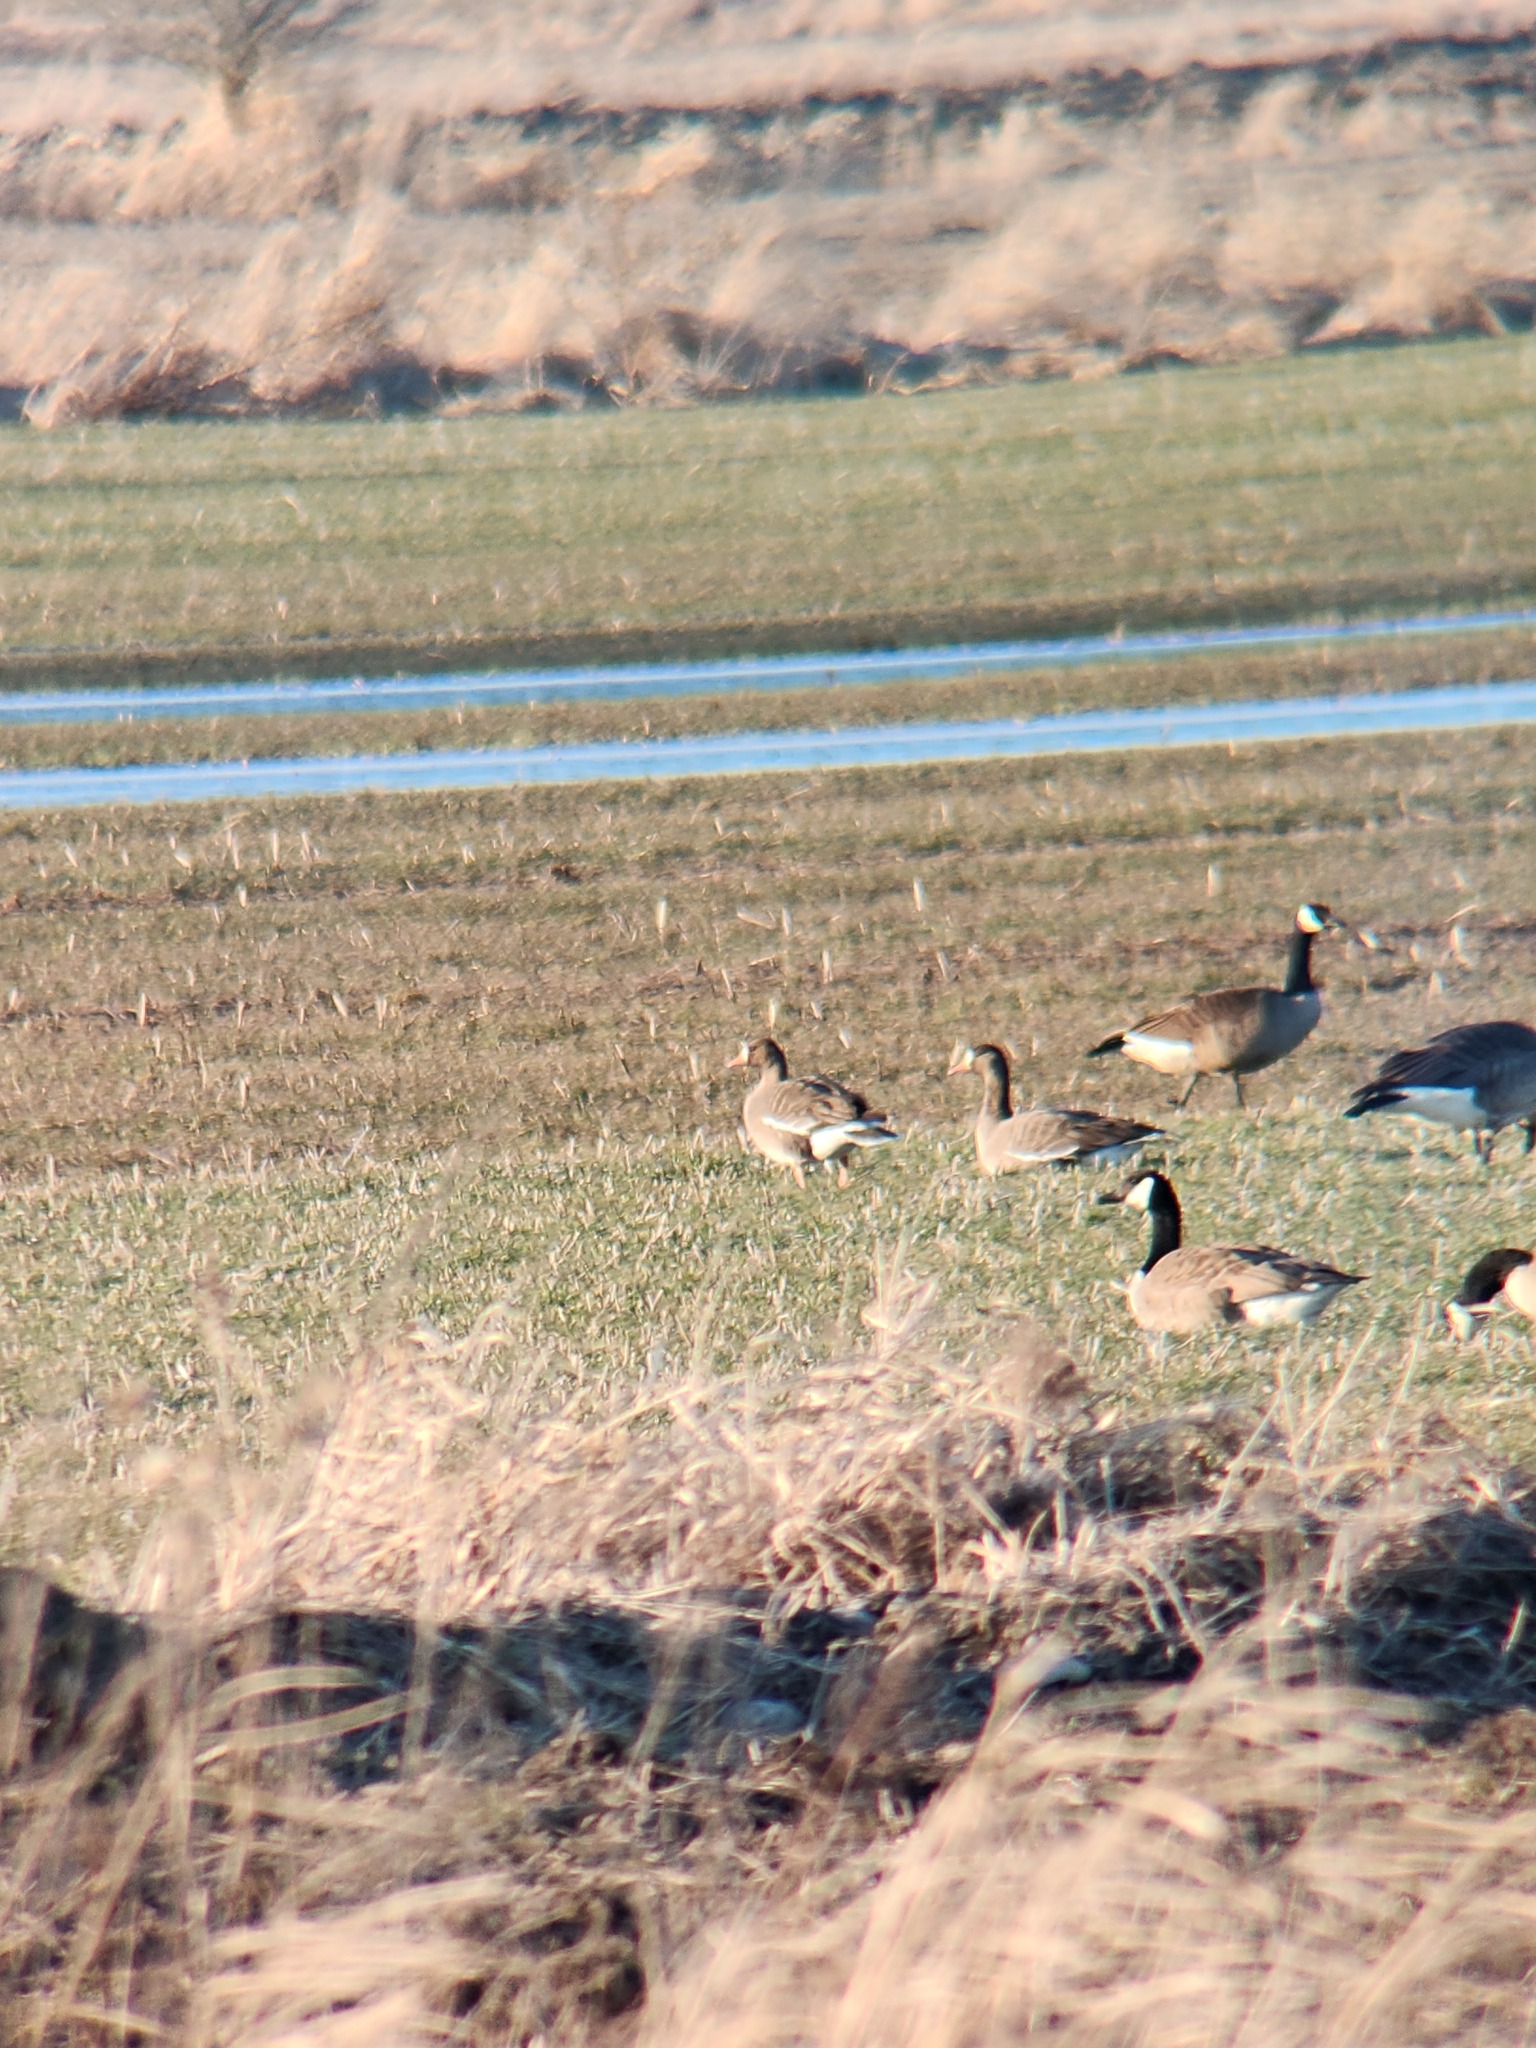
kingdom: Animalia
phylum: Chordata
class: Aves
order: Anseriformes
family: Anatidae
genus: Anser
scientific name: Anser albifrons
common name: Greater white-fronted goose
